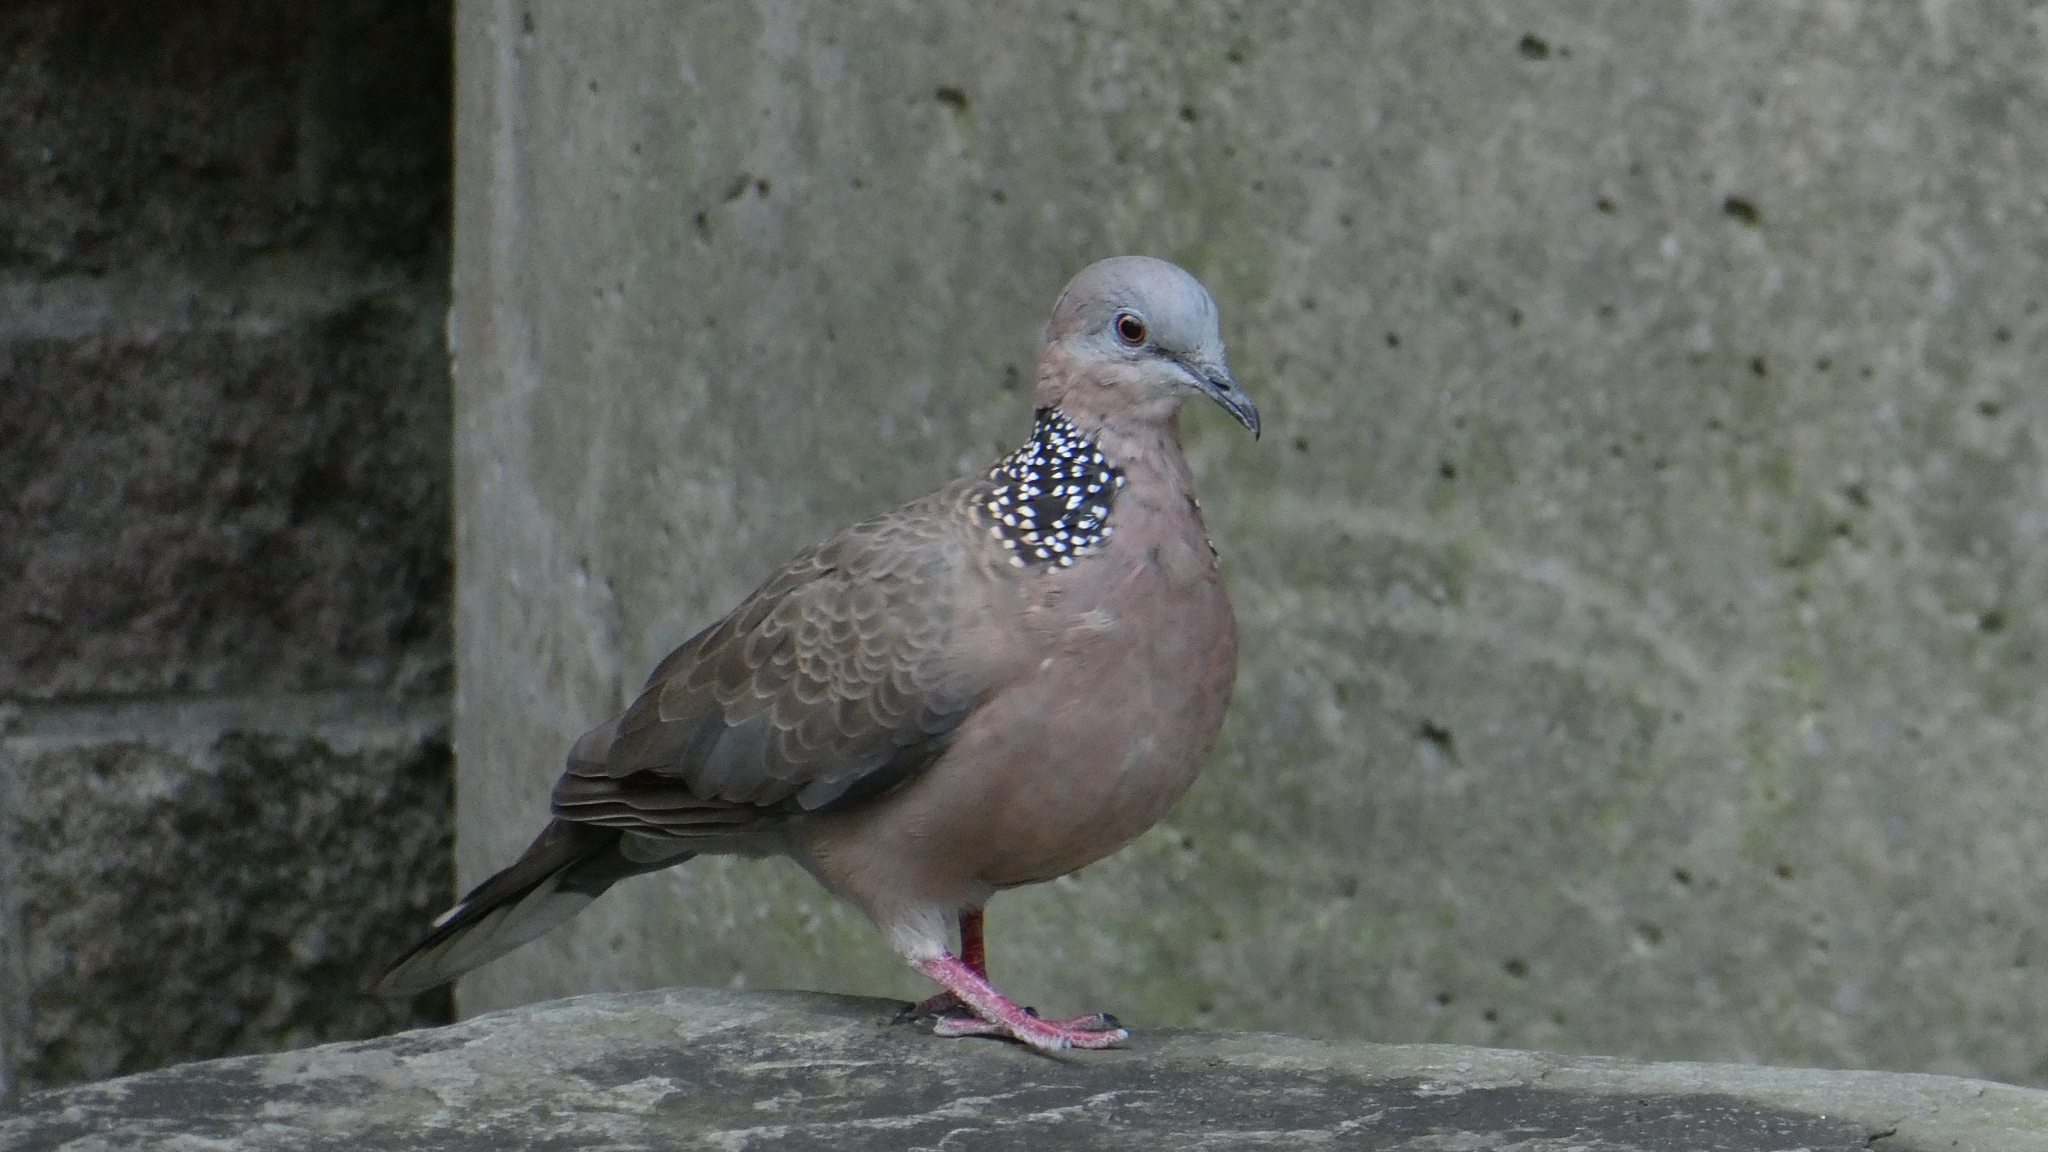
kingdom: Animalia
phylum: Chordata
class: Aves
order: Columbiformes
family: Columbidae
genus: Spilopelia
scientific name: Spilopelia chinensis
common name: Spotted dove
